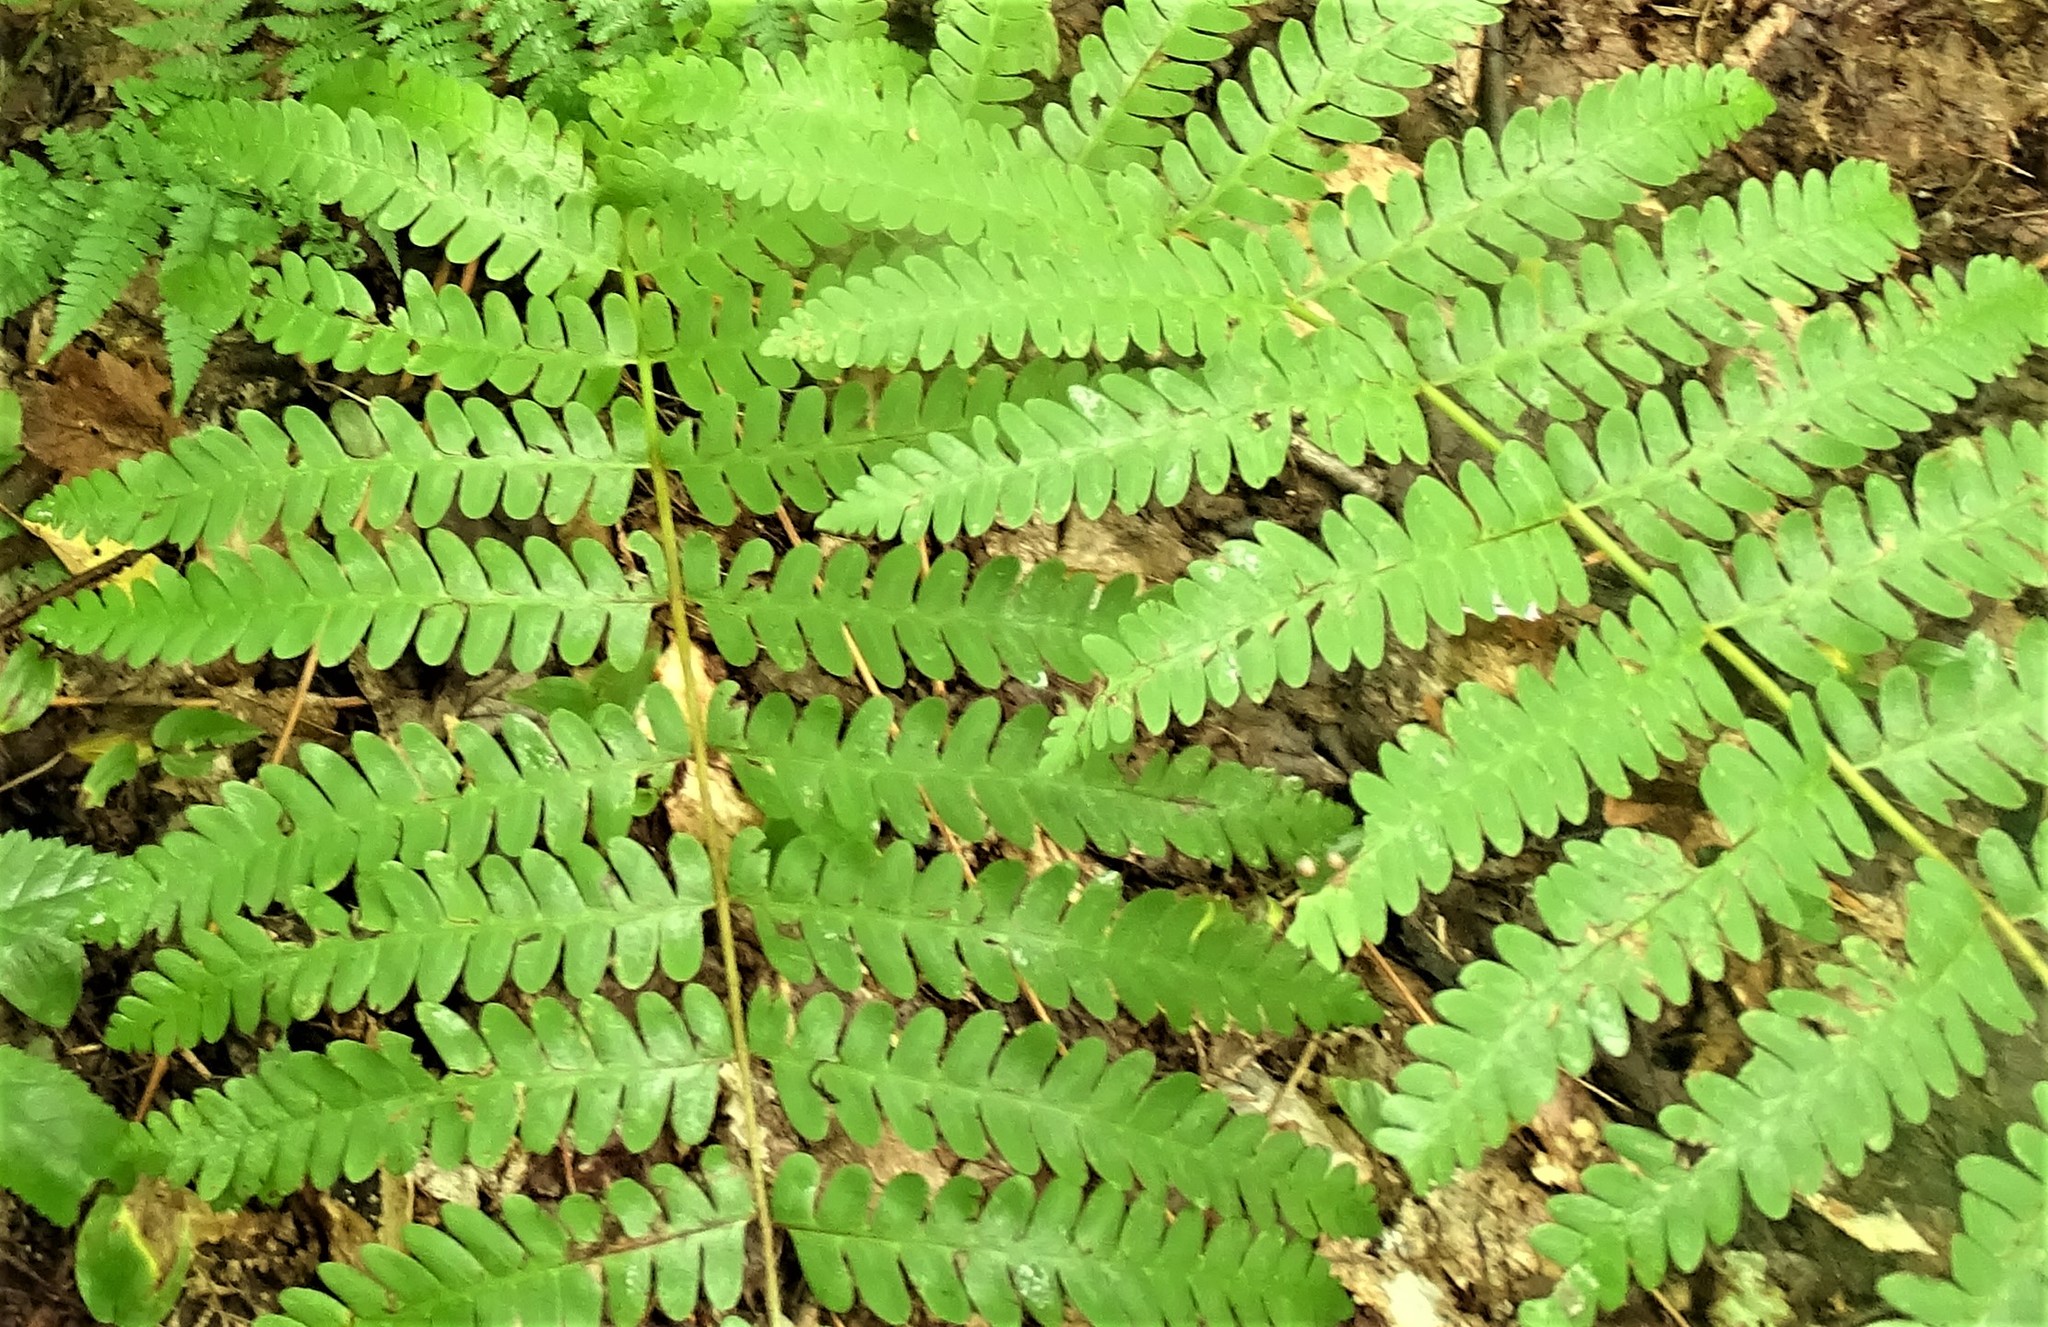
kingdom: Plantae
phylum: Tracheophyta
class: Polypodiopsida
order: Osmundales
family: Osmundaceae
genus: Claytosmunda
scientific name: Claytosmunda claytoniana
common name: Clayton's fern
